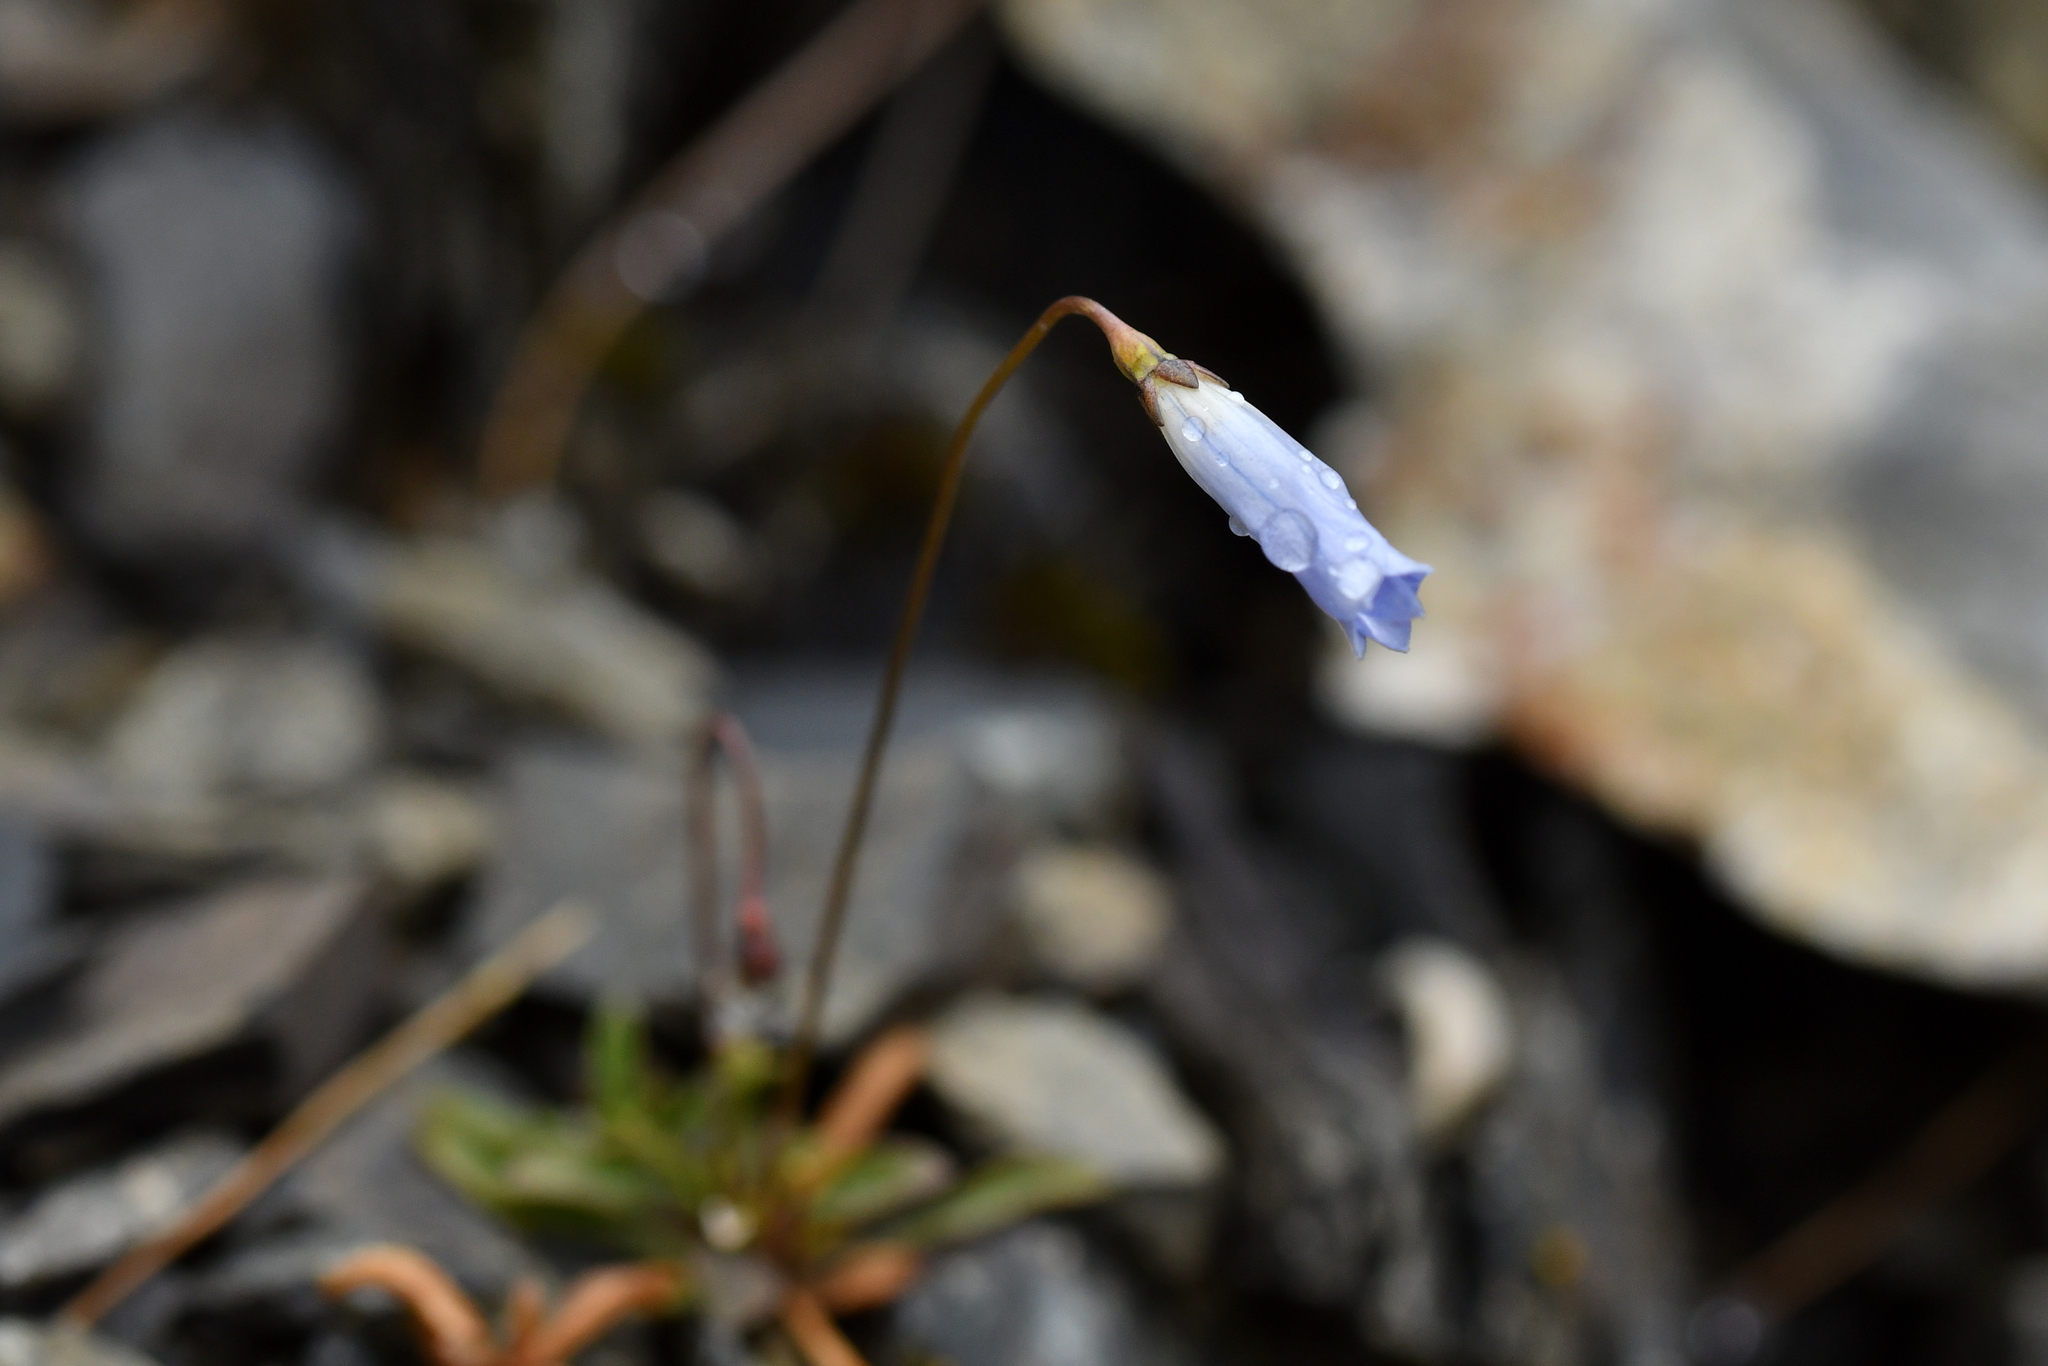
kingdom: Plantae
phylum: Tracheophyta
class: Magnoliopsida
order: Asterales
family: Campanulaceae
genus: Wahlenbergia
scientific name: Wahlenbergia albomarginata
